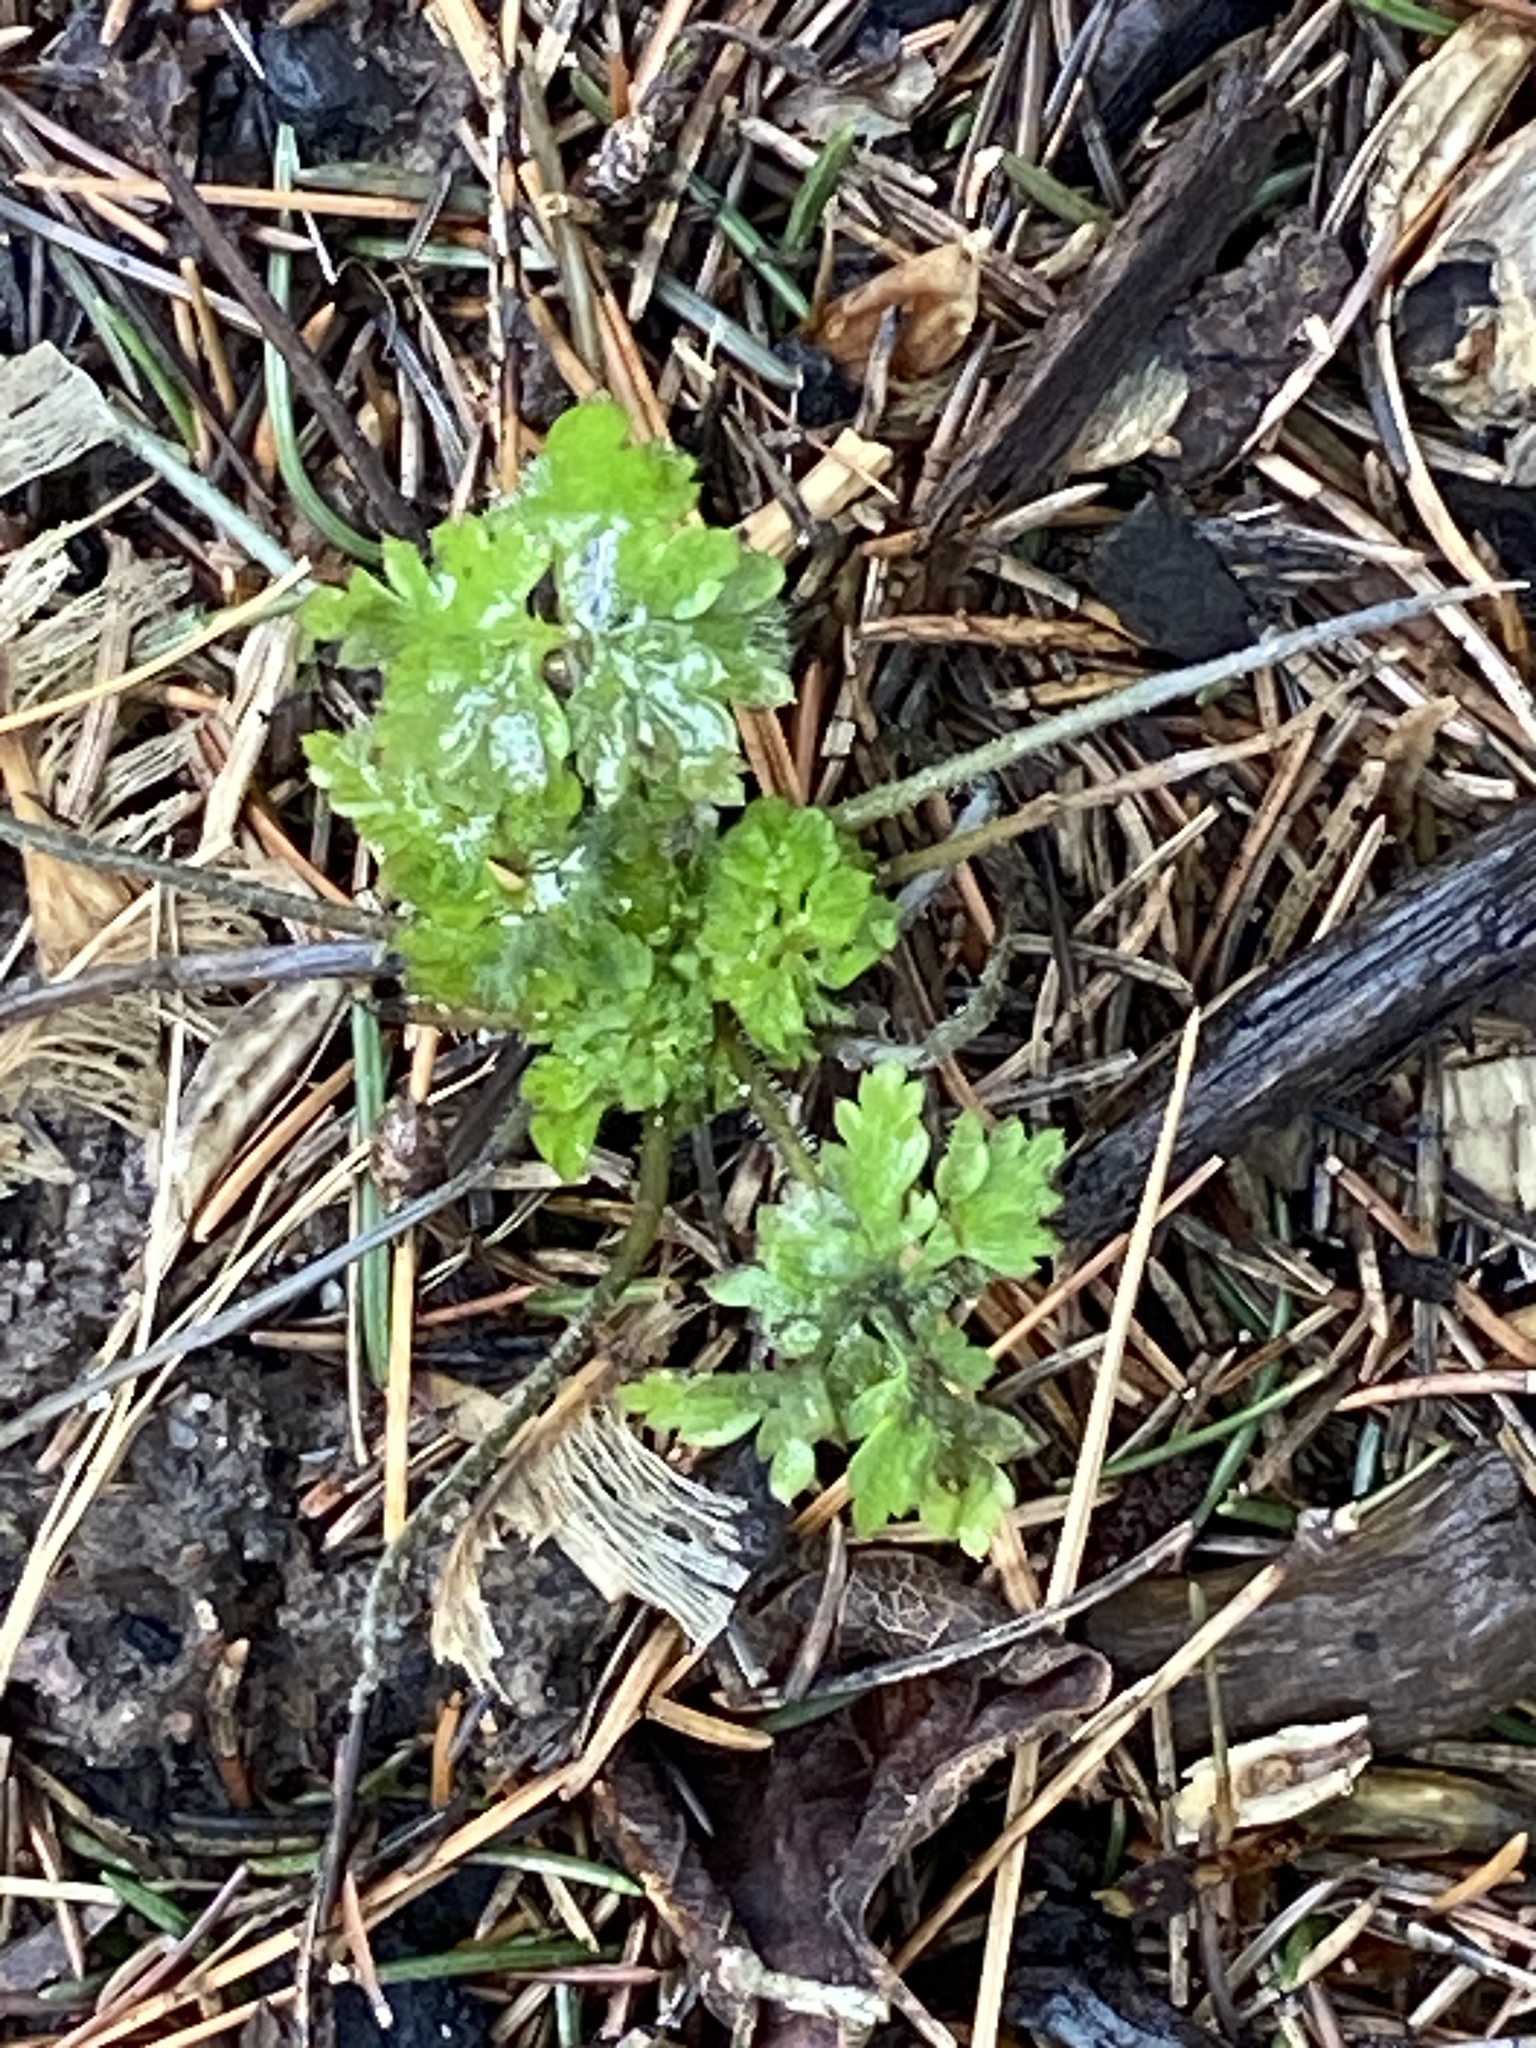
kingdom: Plantae
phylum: Tracheophyta
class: Magnoliopsida
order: Asterales
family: Asteraceae
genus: Artemisia
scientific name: Artemisia vulgaris
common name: Mugwort
